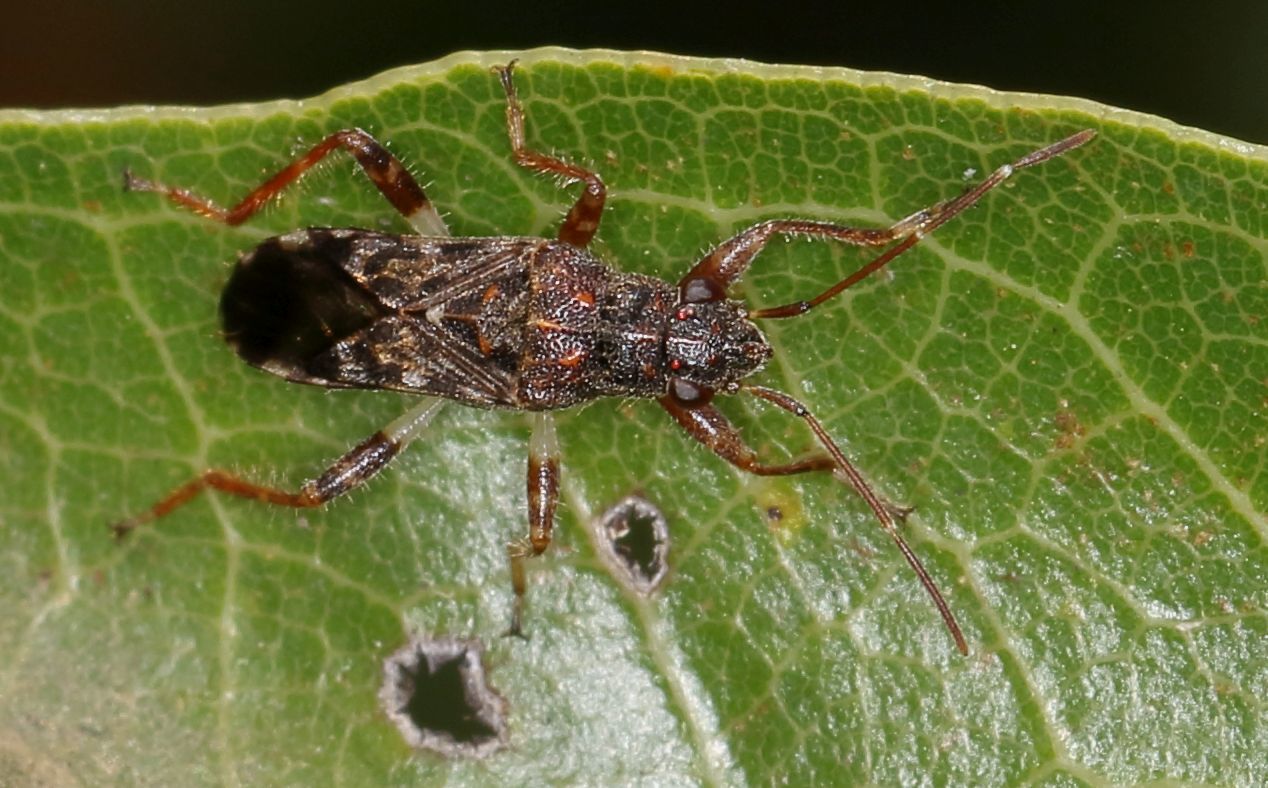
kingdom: Animalia
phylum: Arthropoda
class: Insecta
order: Hemiptera
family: Heterogastridae
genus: Dinomachus
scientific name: Dinomachus capeneri
